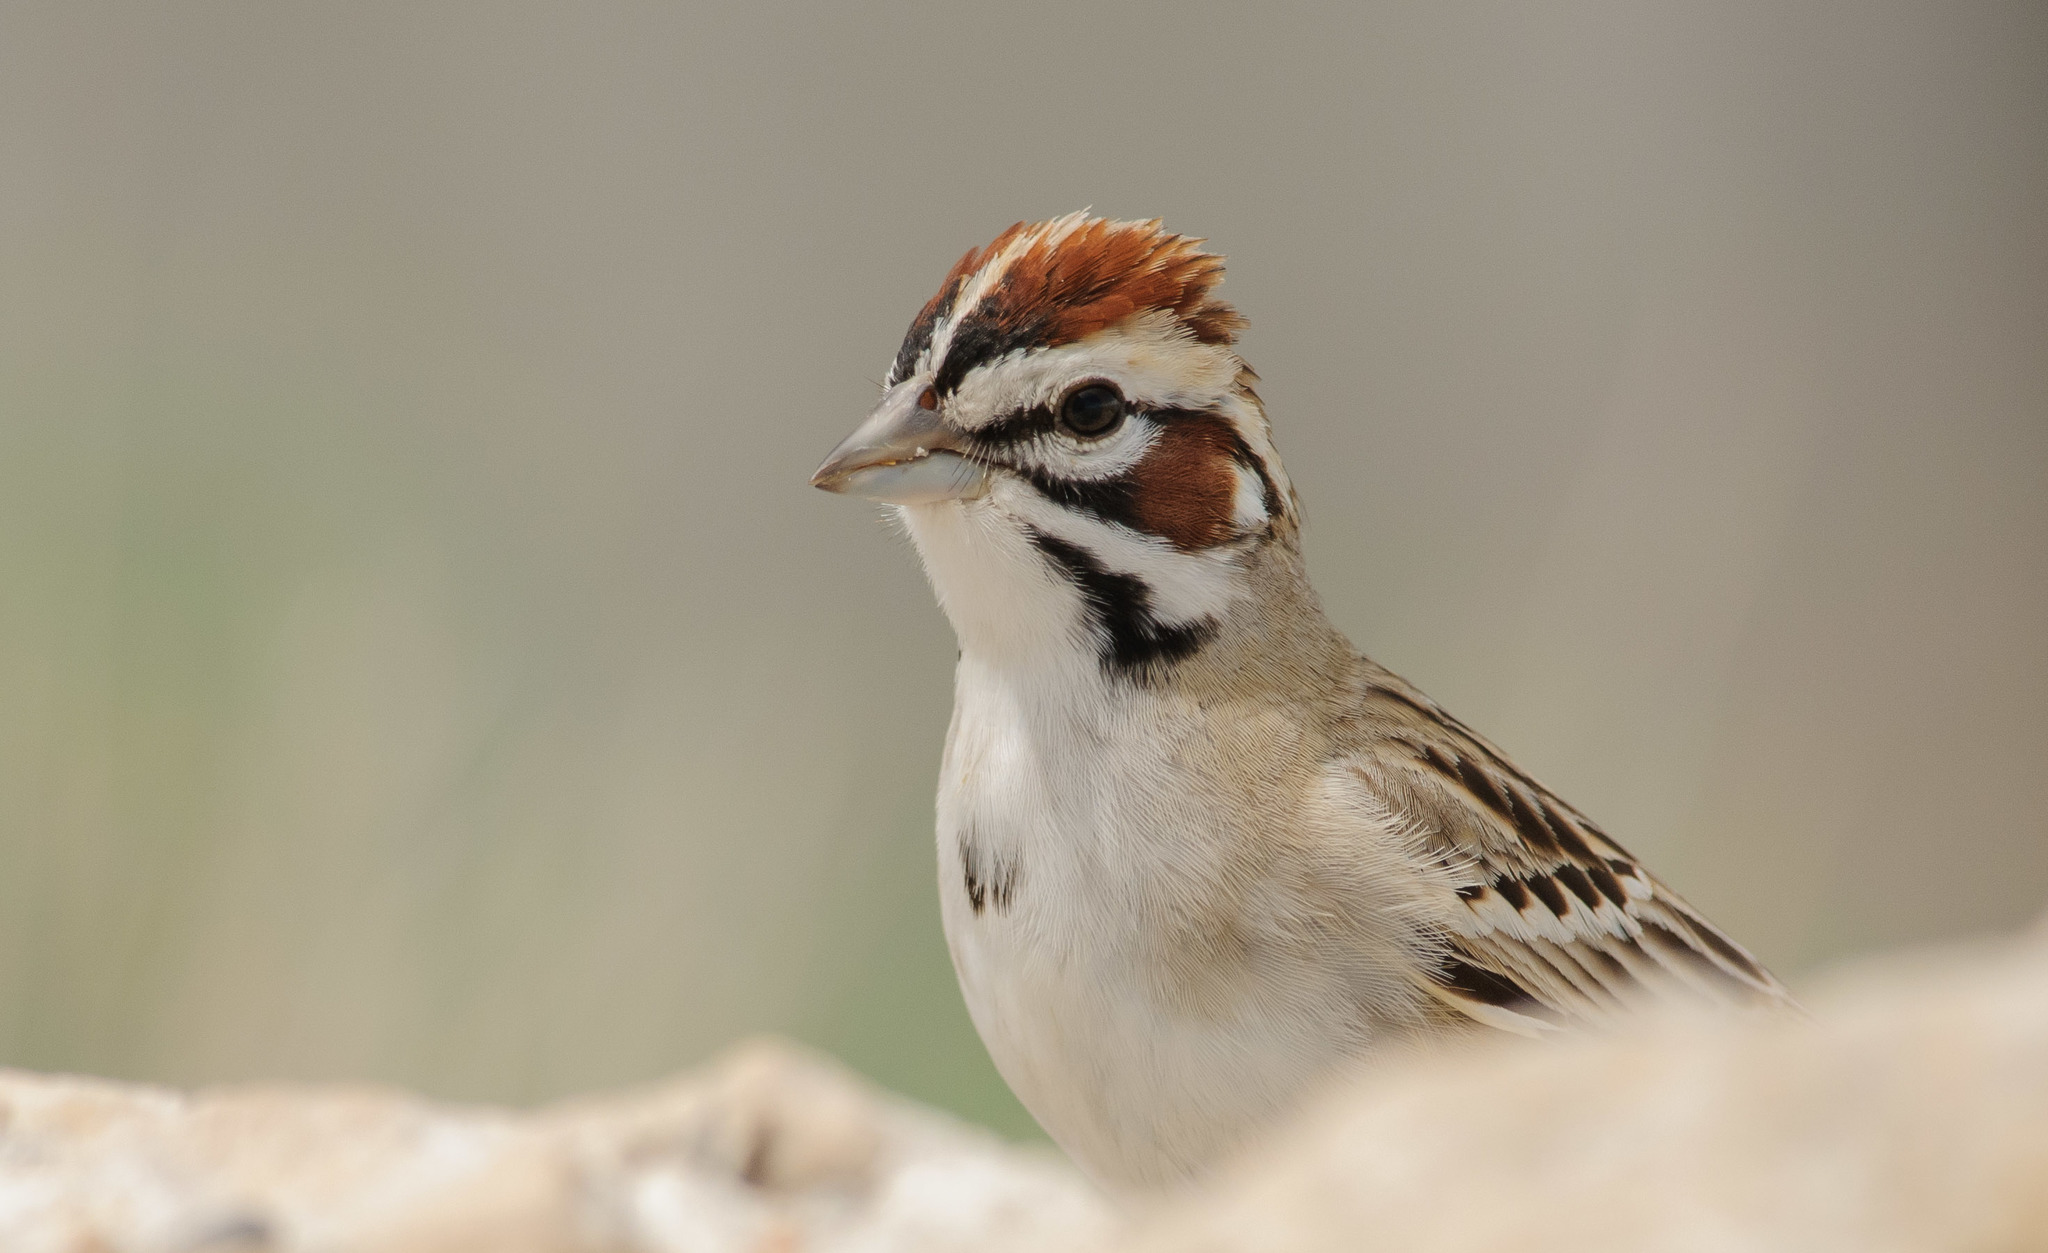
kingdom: Animalia
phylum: Chordata
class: Aves
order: Passeriformes
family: Passerellidae
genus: Chondestes
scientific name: Chondestes grammacus
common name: Lark sparrow
